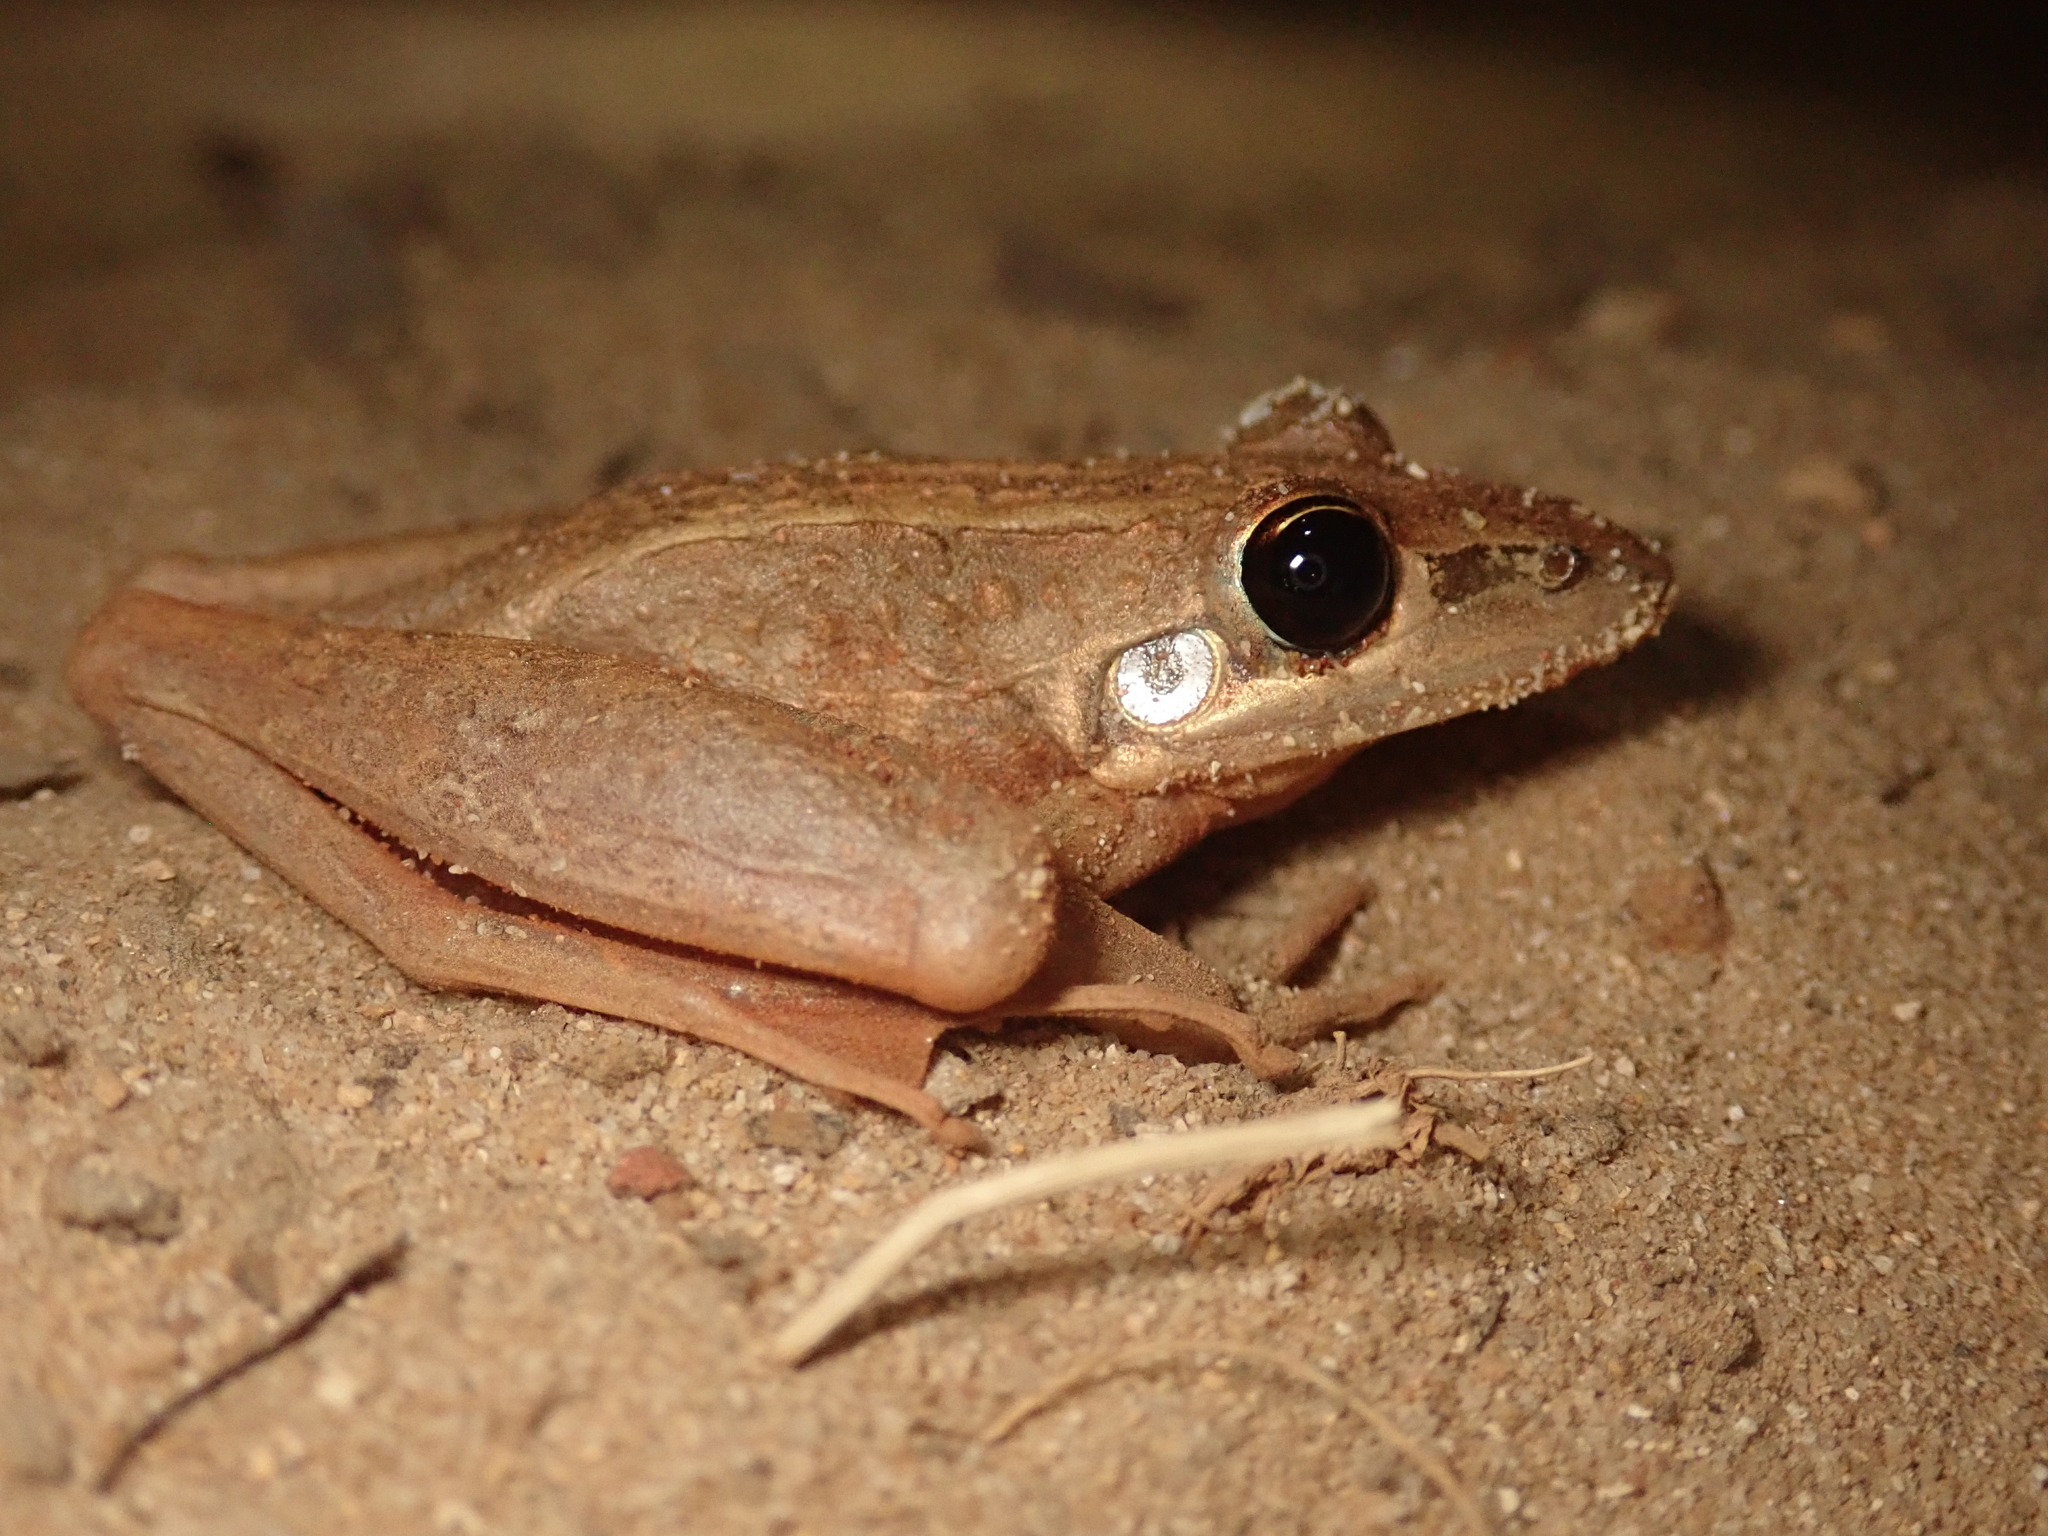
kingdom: Animalia
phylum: Chordata
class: Amphibia
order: Anura
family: Pelodryadidae
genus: Litoria
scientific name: Litoria nasuta
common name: Rocket frog
